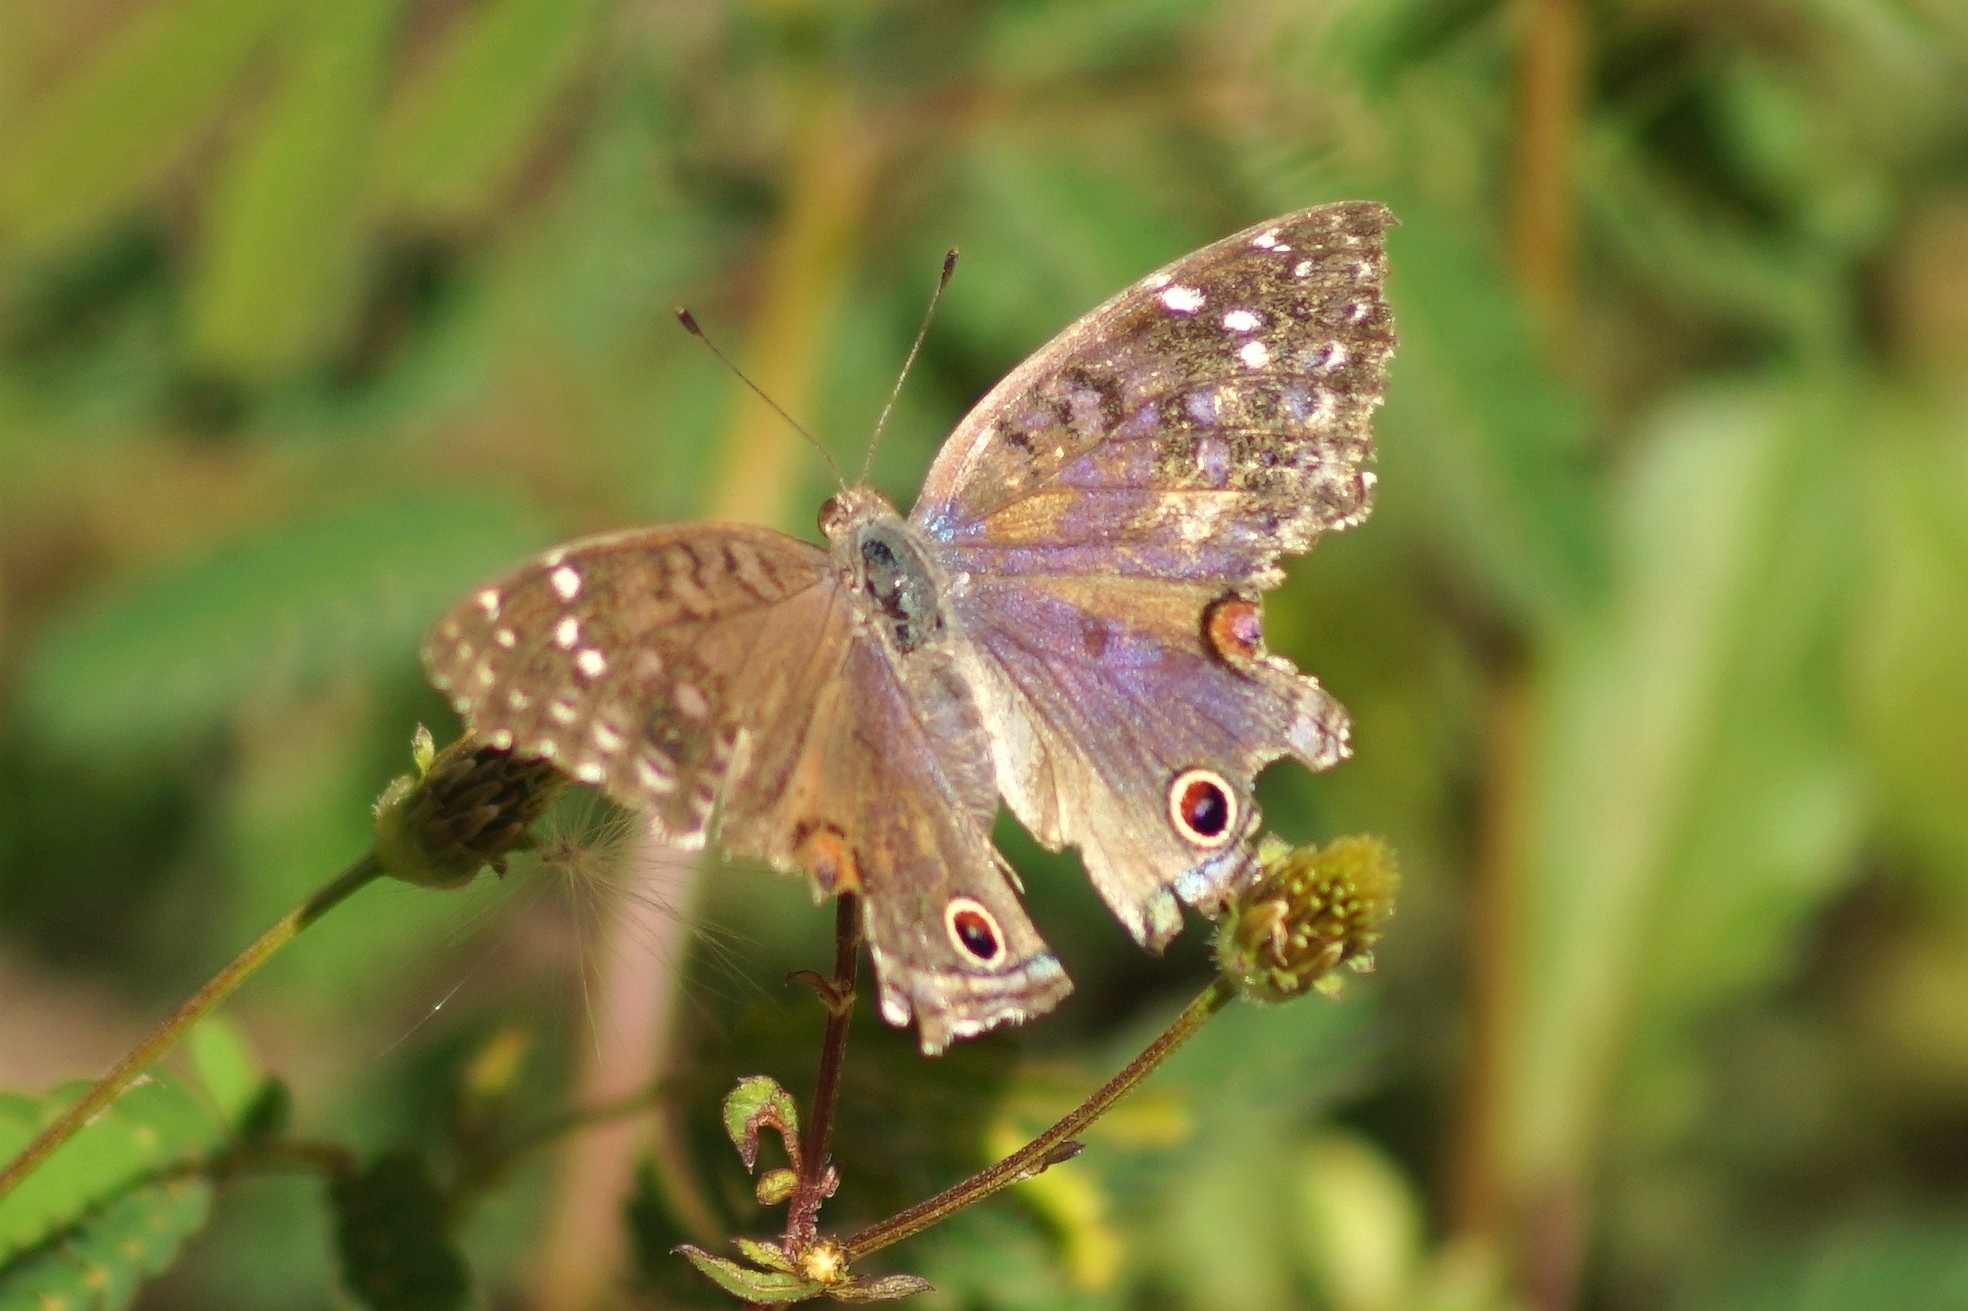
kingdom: Animalia
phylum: Arthropoda
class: Insecta
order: Lepidoptera
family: Nymphalidae
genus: Junonia
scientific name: Junonia rhadama
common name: Royal blue pansy
